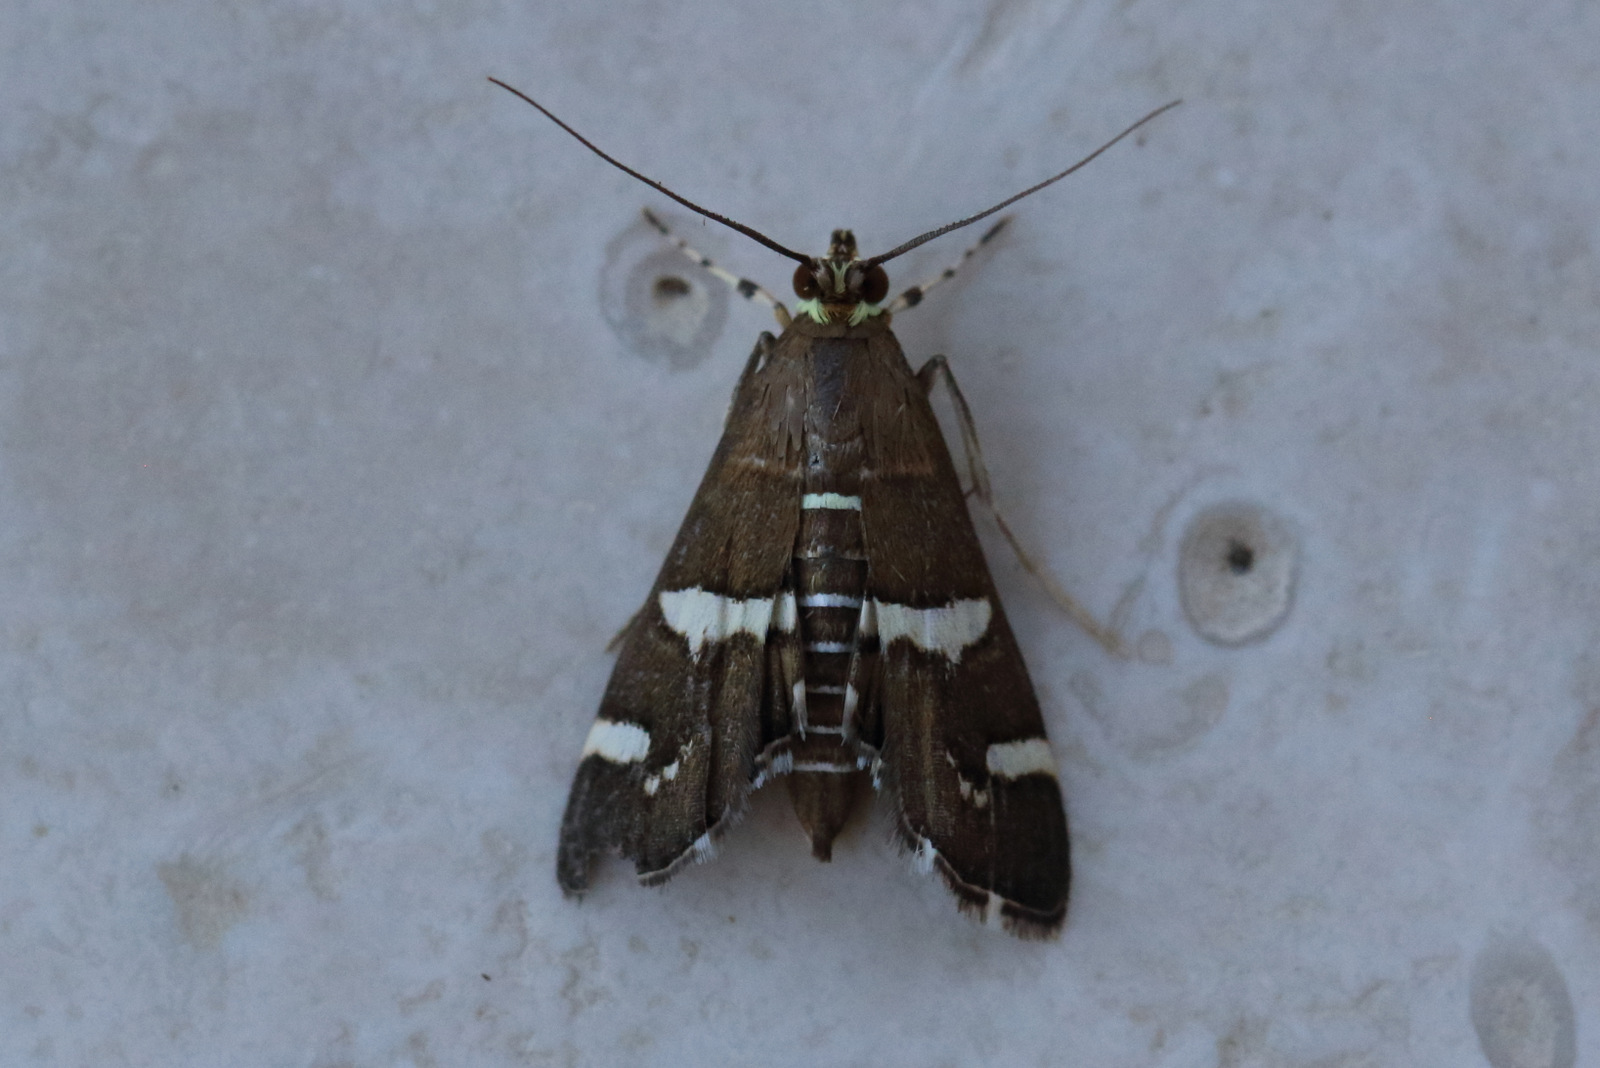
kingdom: Animalia
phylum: Arthropoda
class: Insecta
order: Lepidoptera
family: Crambidae
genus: Spoladea
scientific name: Spoladea recurvalis
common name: Beet webworm moth
